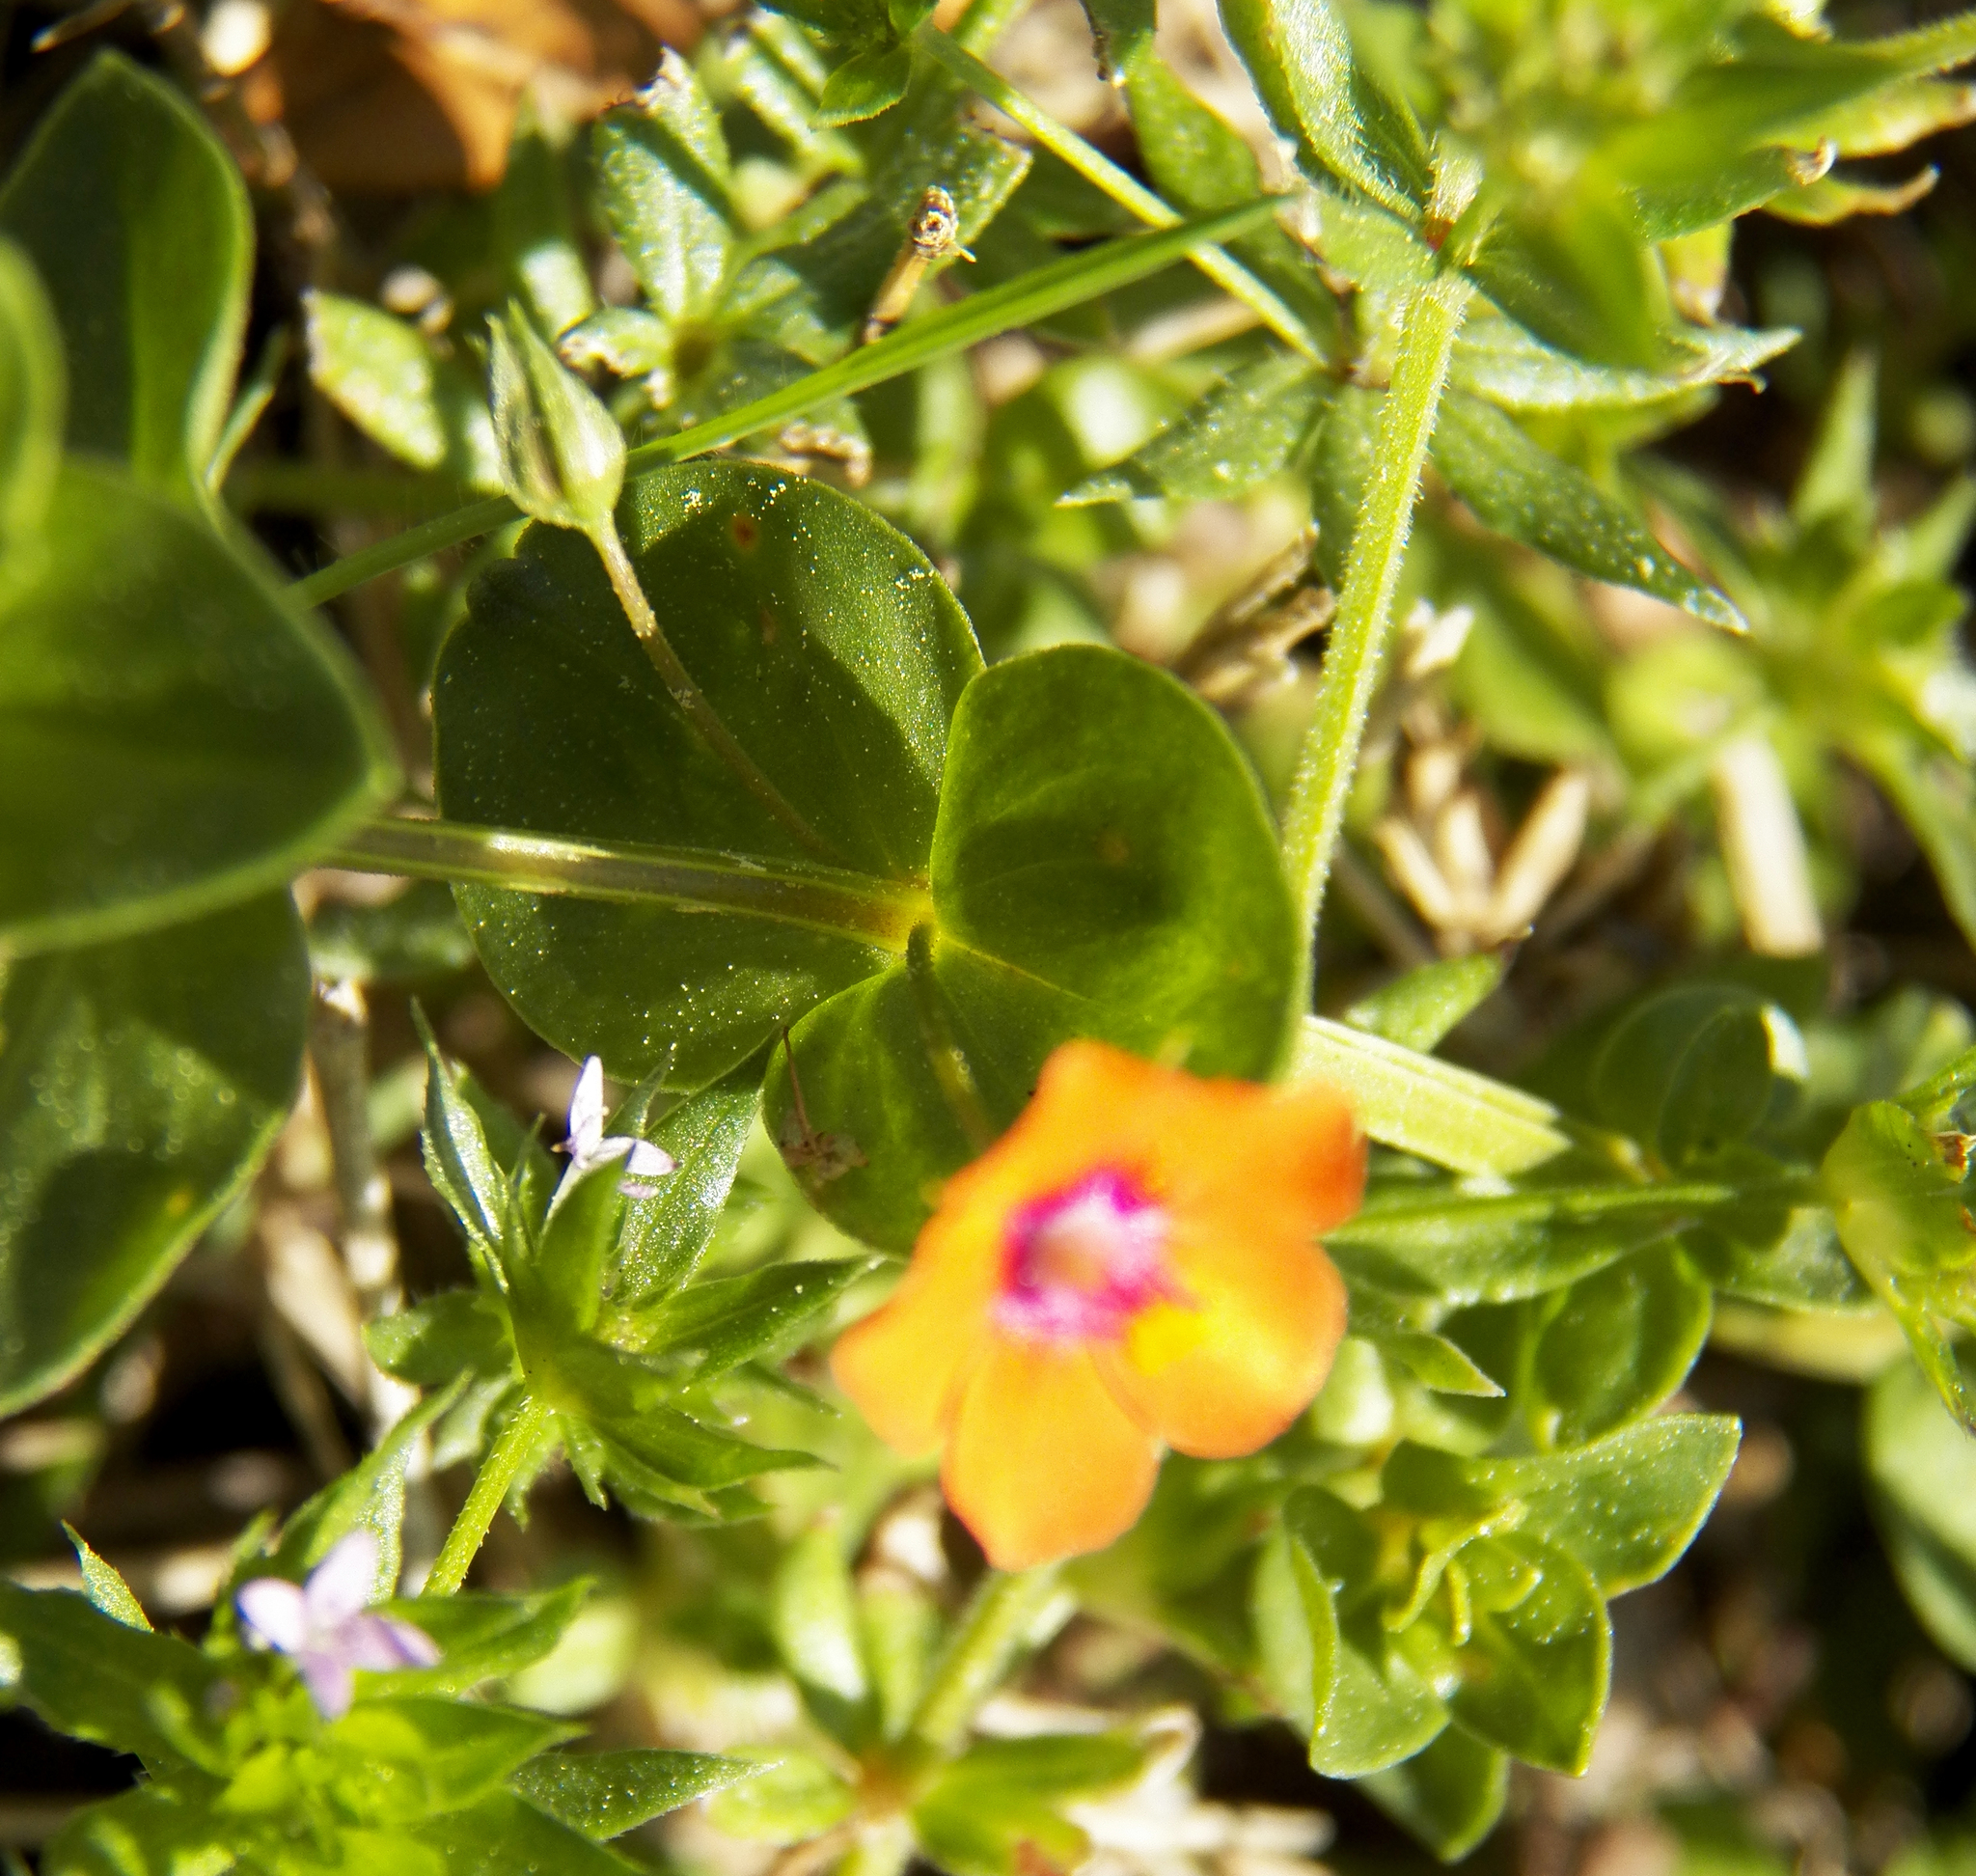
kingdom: Plantae
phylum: Tracheophyta
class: Magnoliopsida
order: Ericales
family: Primulaceae
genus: Lysimachia
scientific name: Lysimachia arvensis
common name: Scarlet pimpernel
